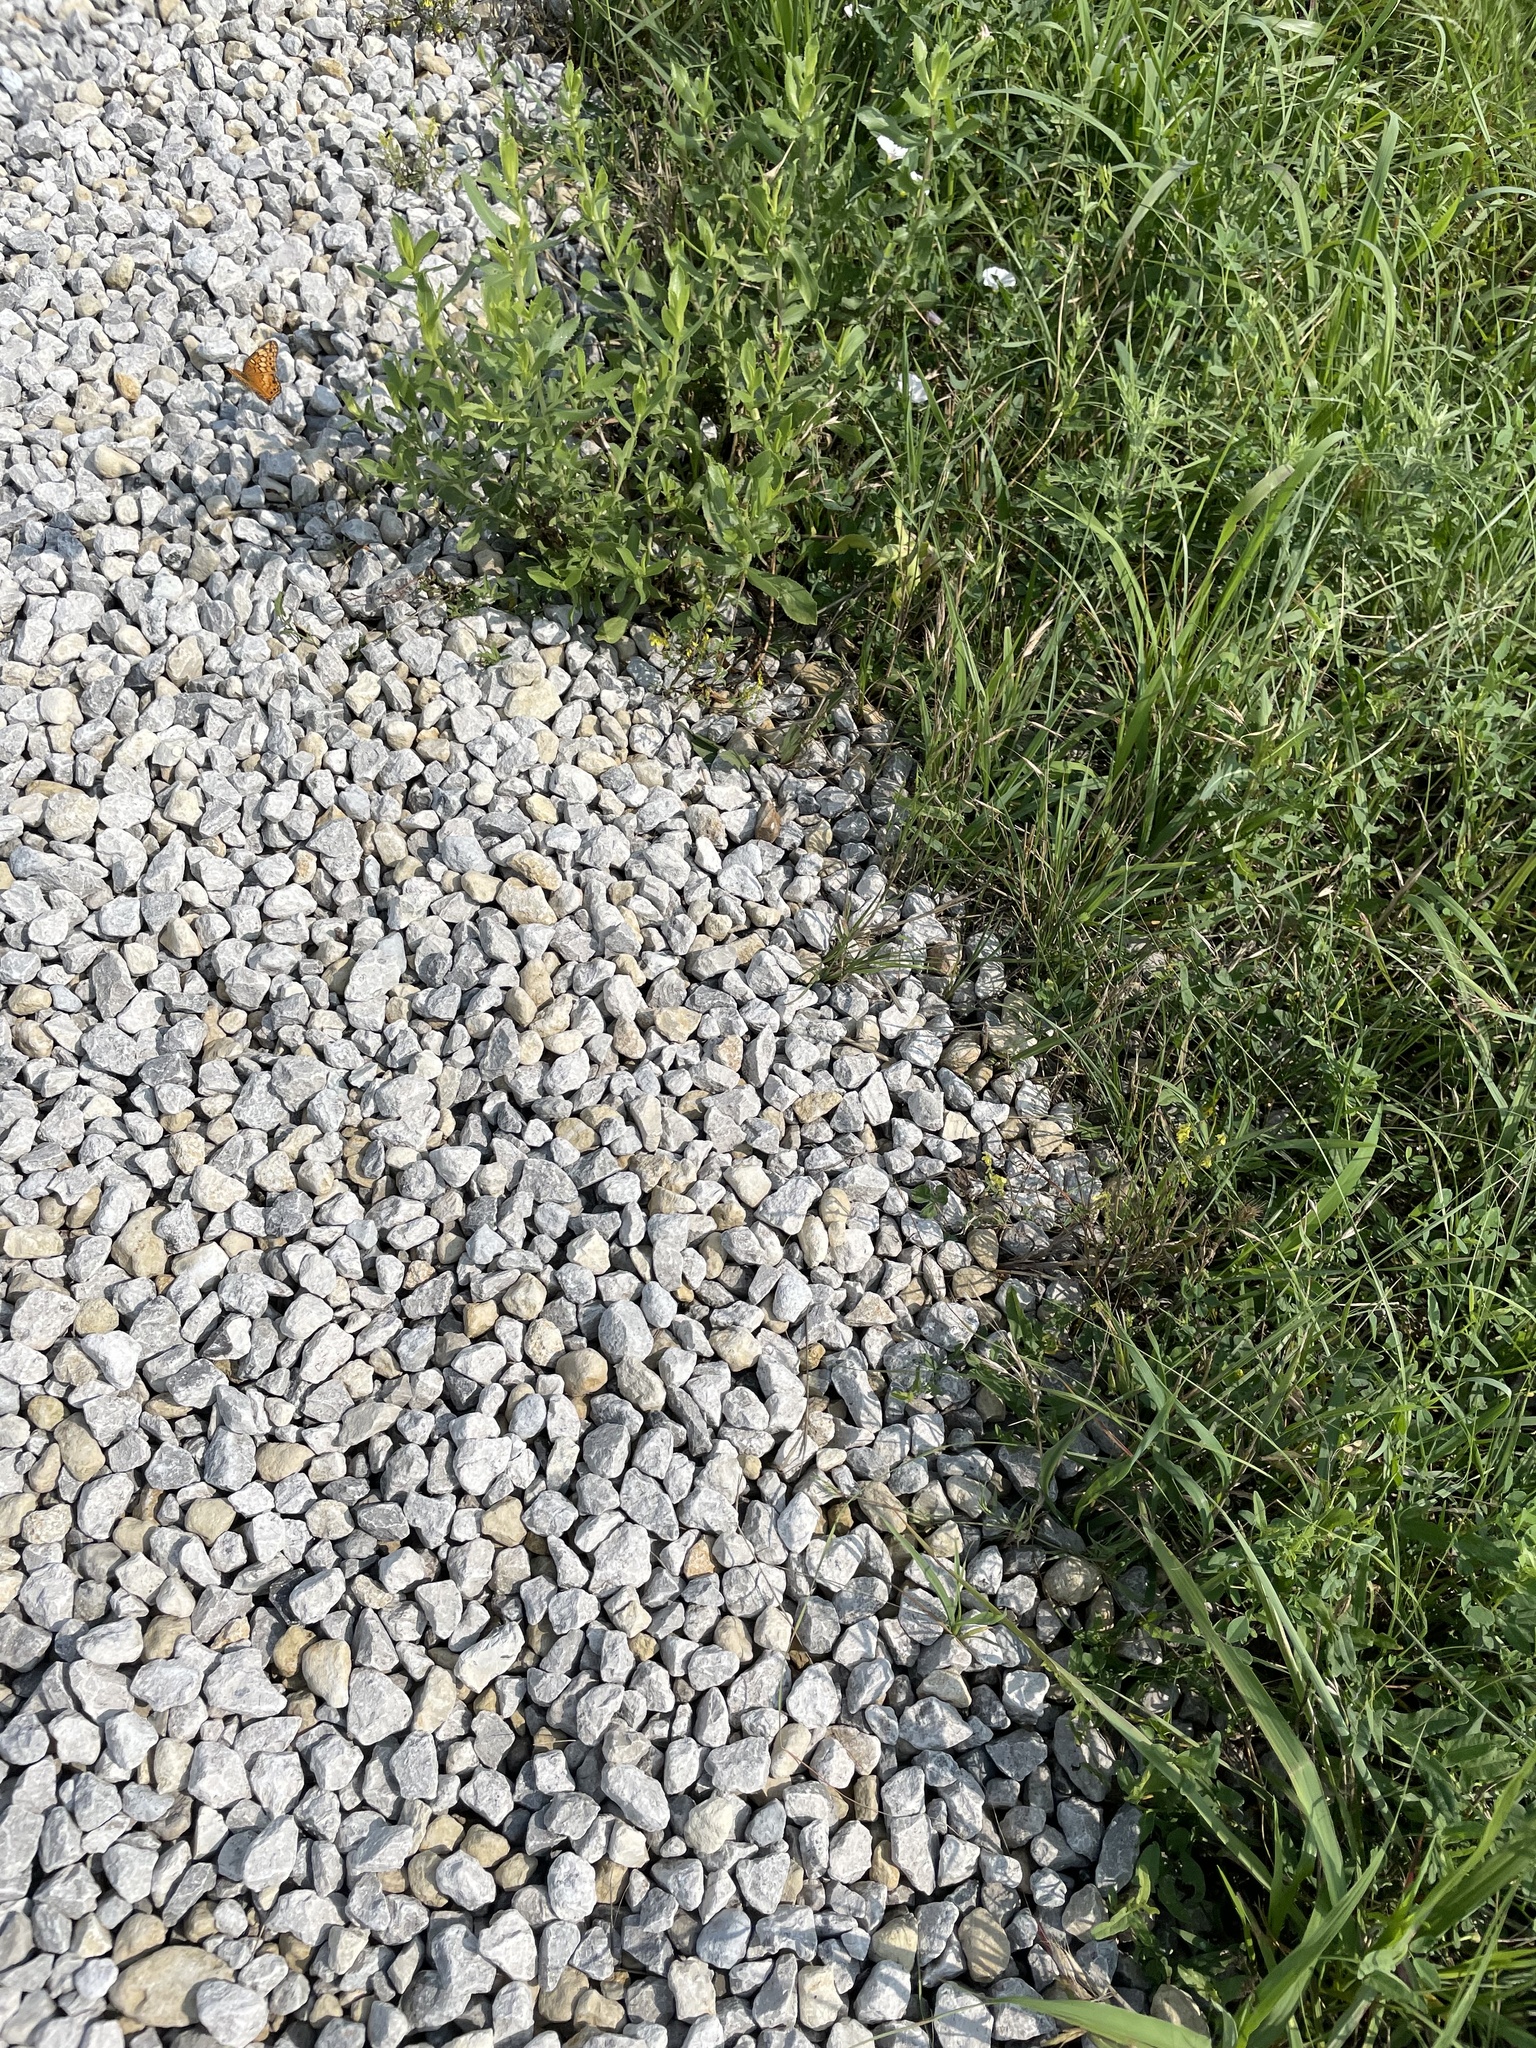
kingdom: Animalia
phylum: Arthropoda
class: Insecta
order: Lepidoptera
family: Nymphalidae
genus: Euptoieta
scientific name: Euptoieta claudia
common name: Variegated fritillary
